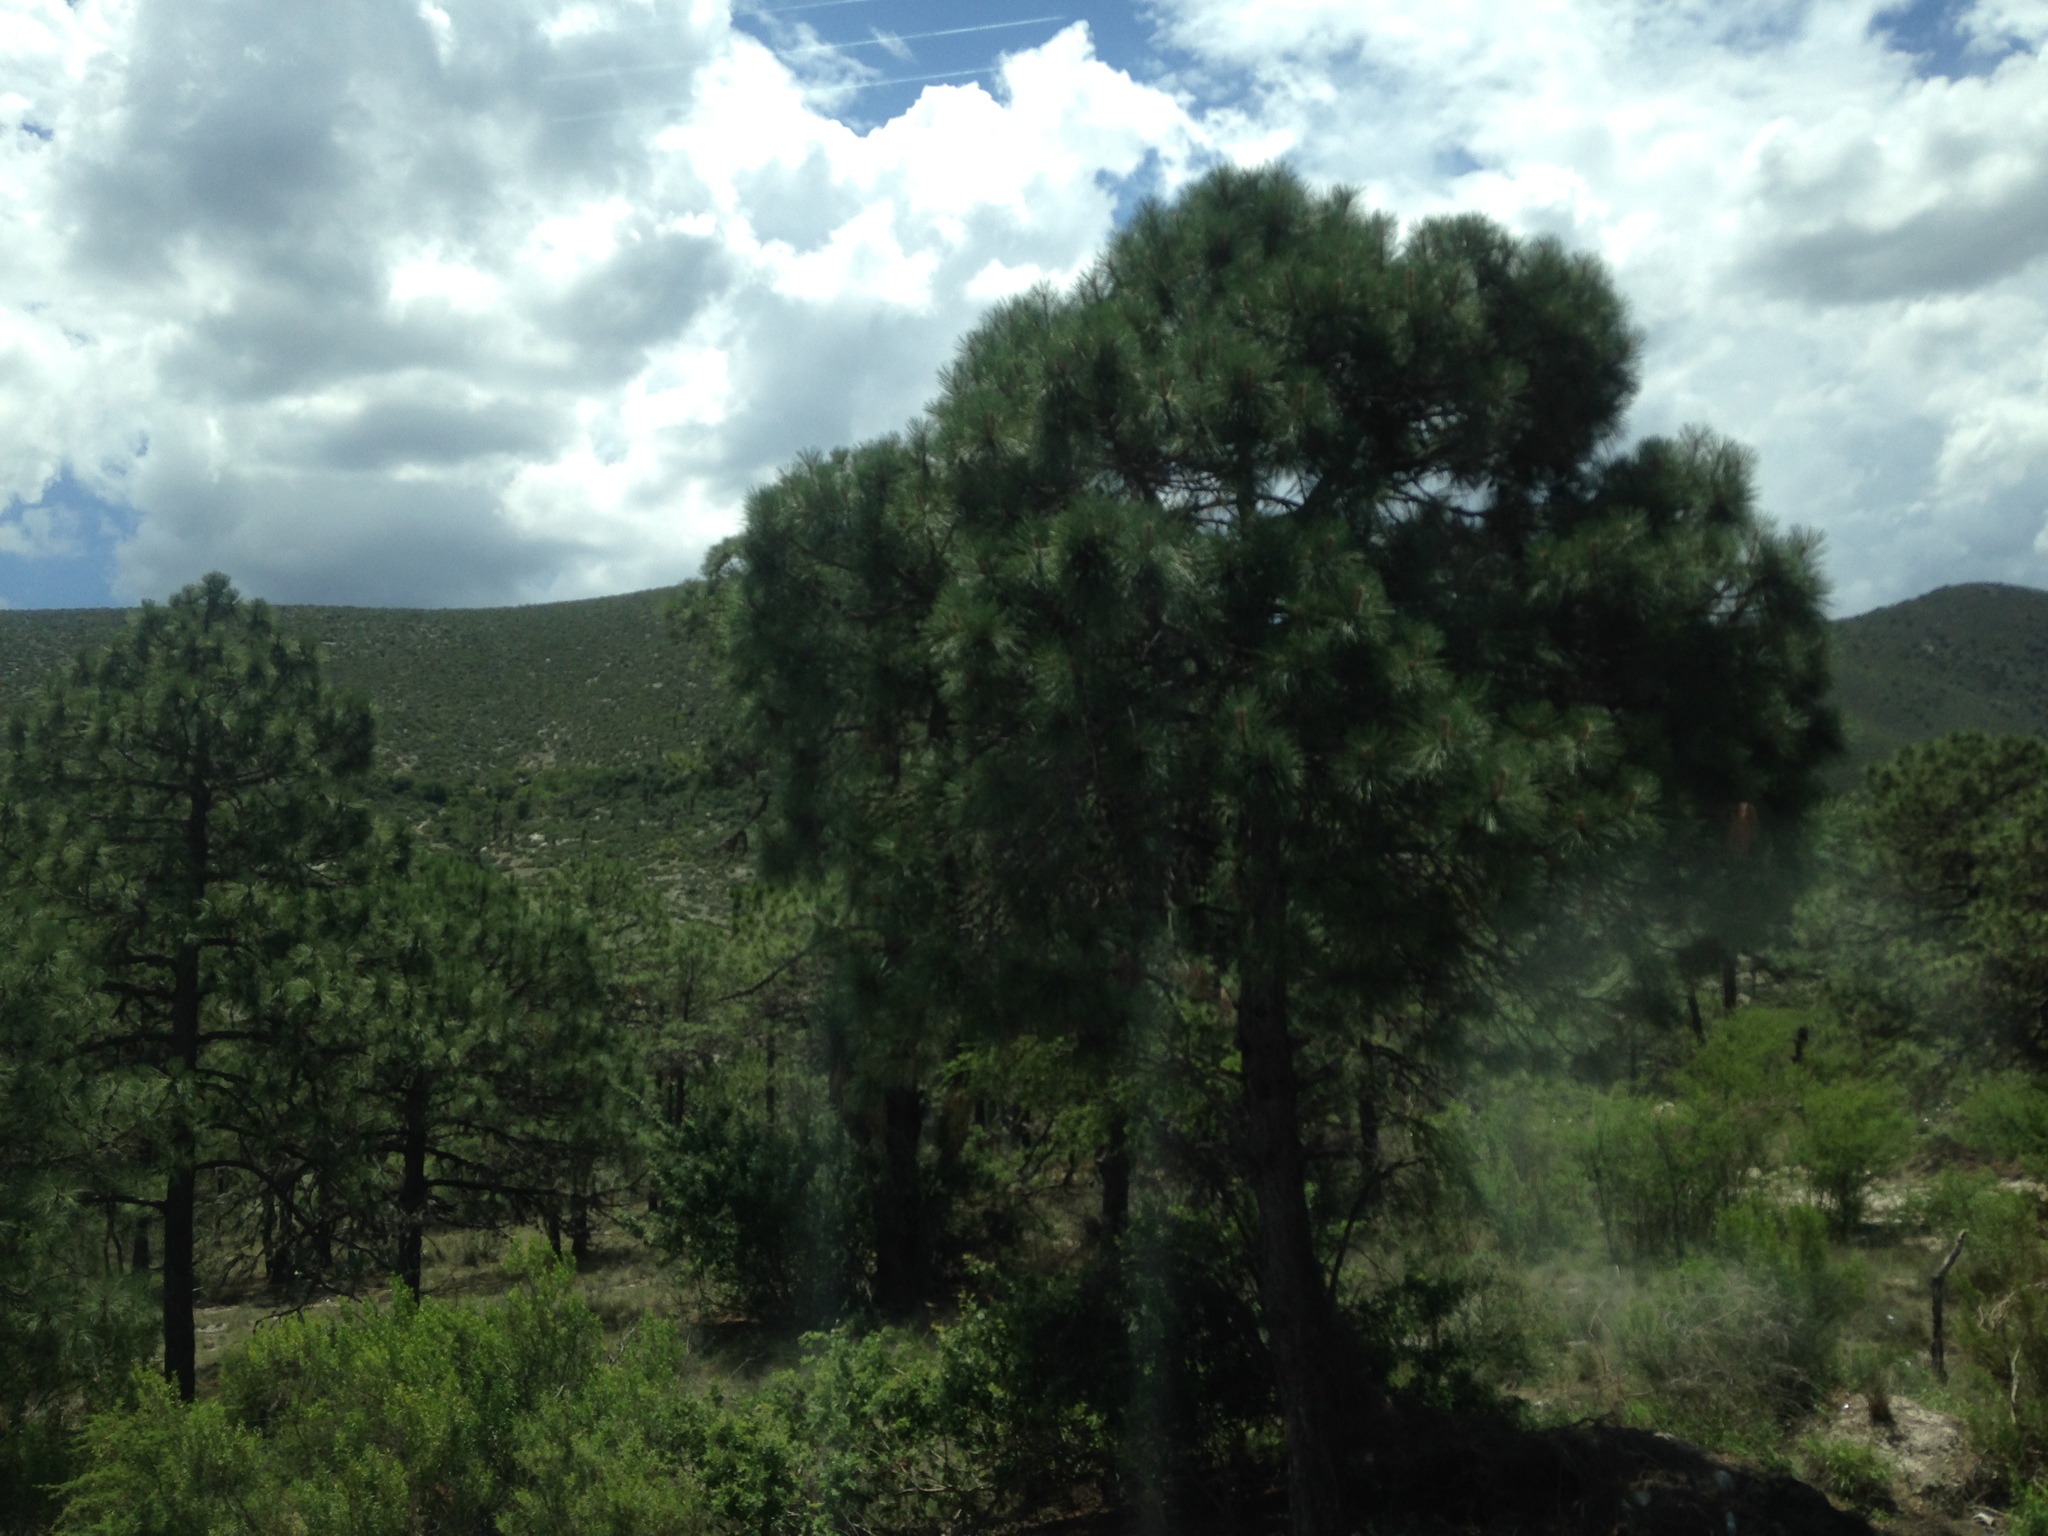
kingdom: Plantae
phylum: Tracheophyta
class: Pinopsida
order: Pinales
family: Pinaceae
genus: Pinus
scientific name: Pinus arizonica
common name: Arizona pine
